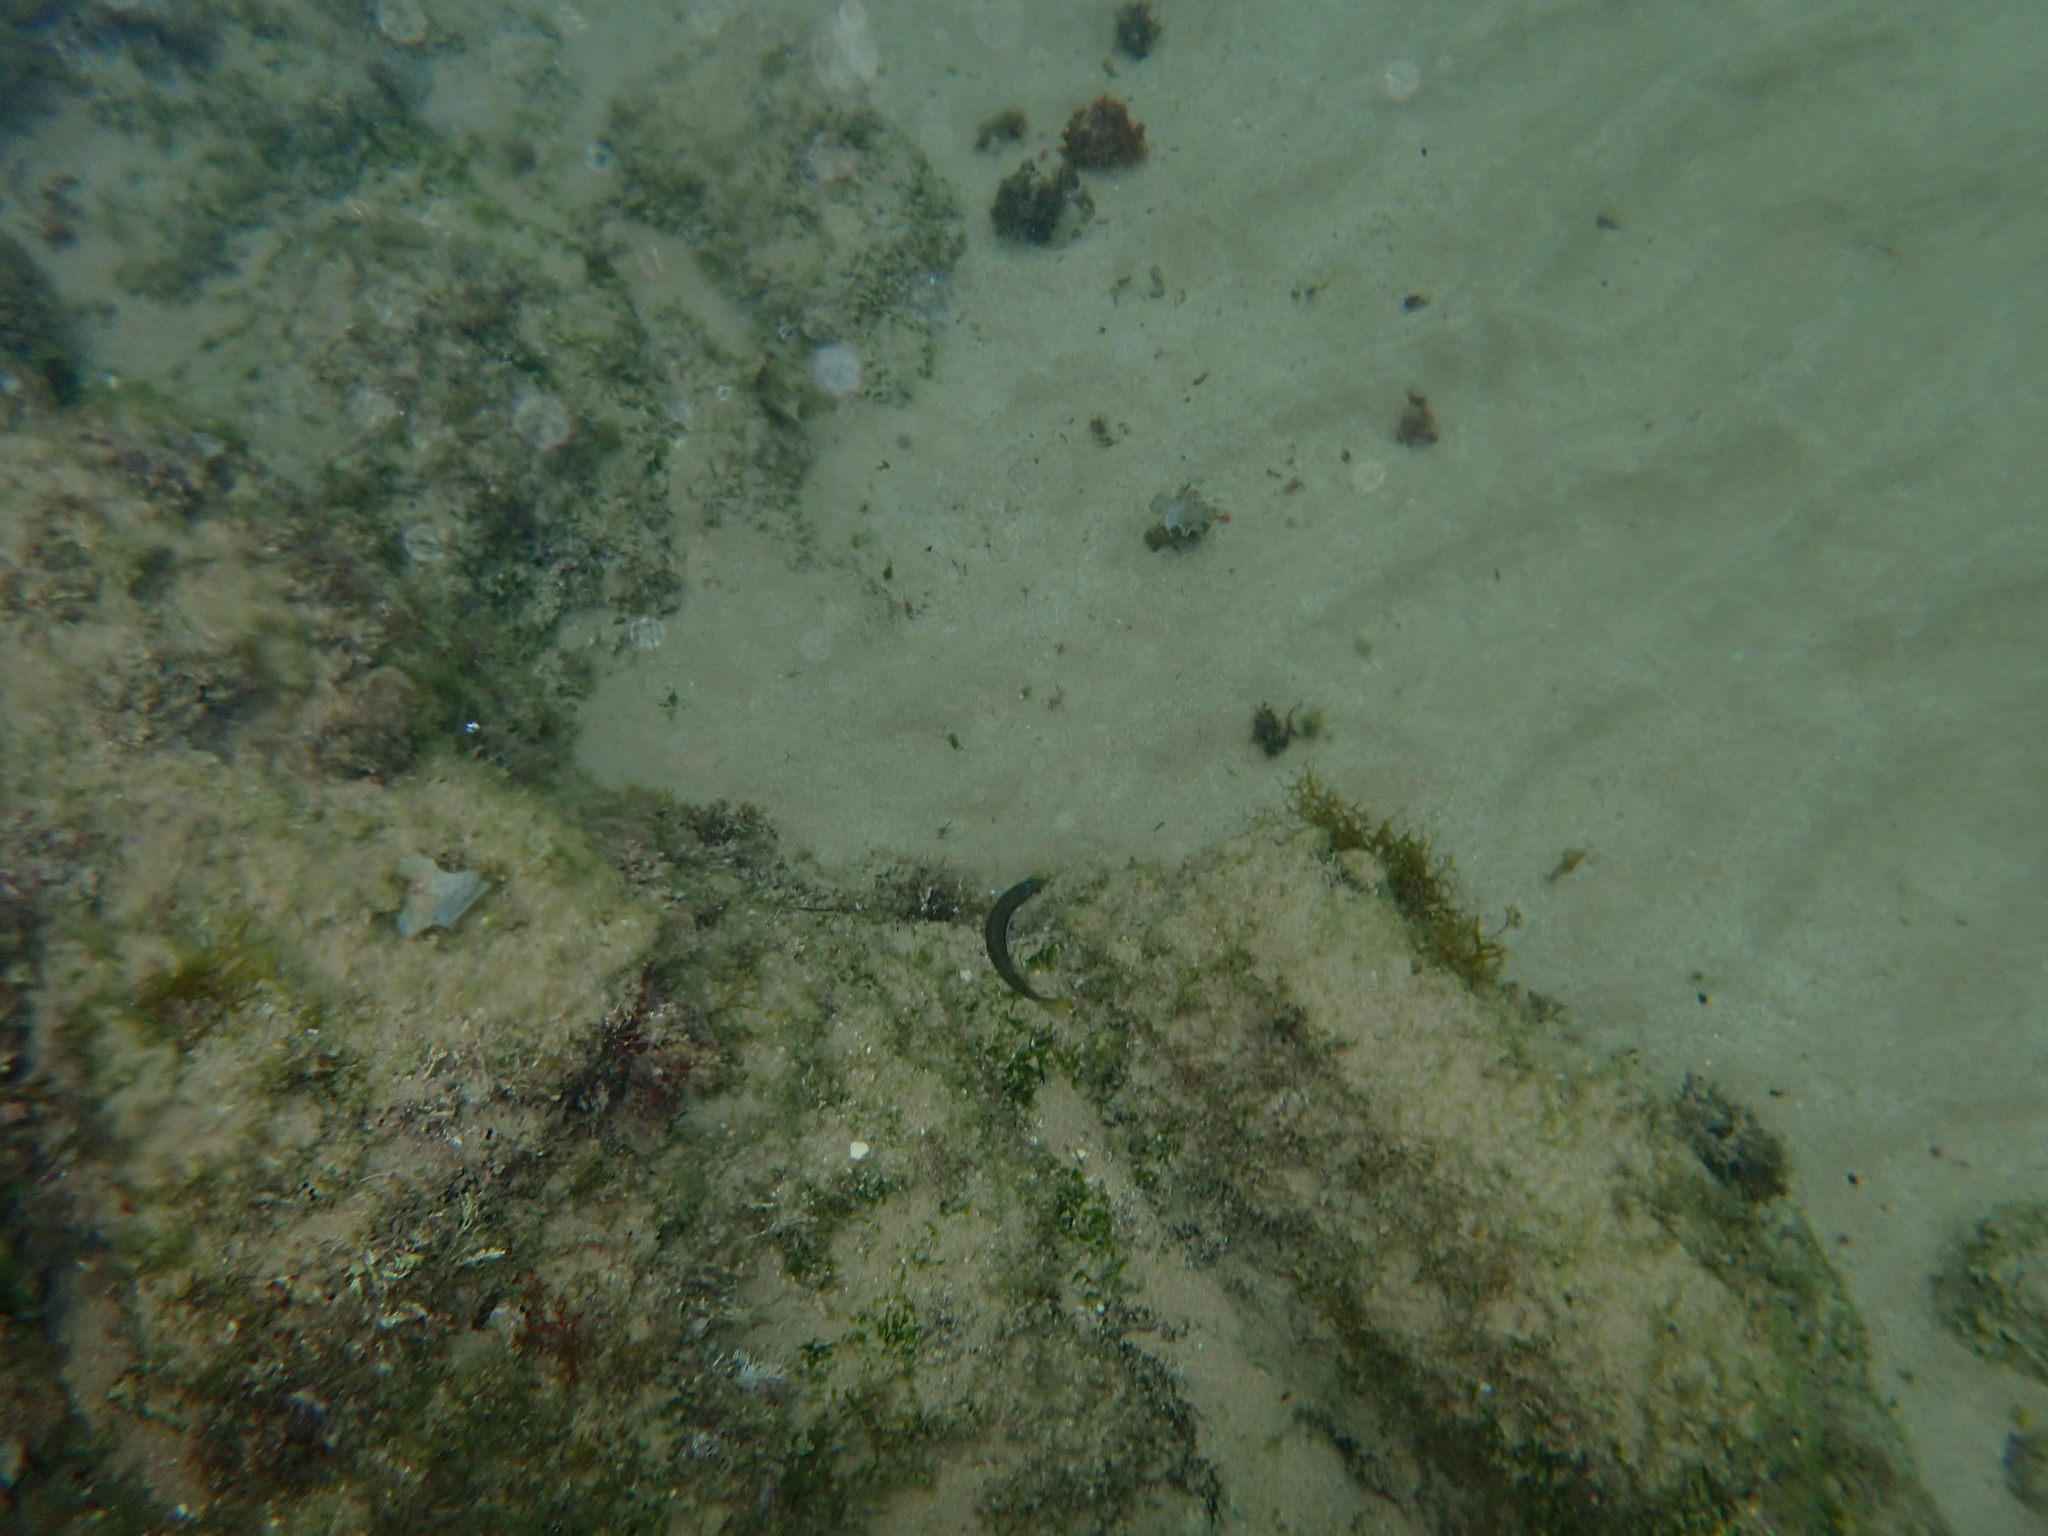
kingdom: Animalia
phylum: Chordata
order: Perciformes
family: Labridae
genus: Coris
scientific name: Coris julis
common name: Rainbow wrasse
